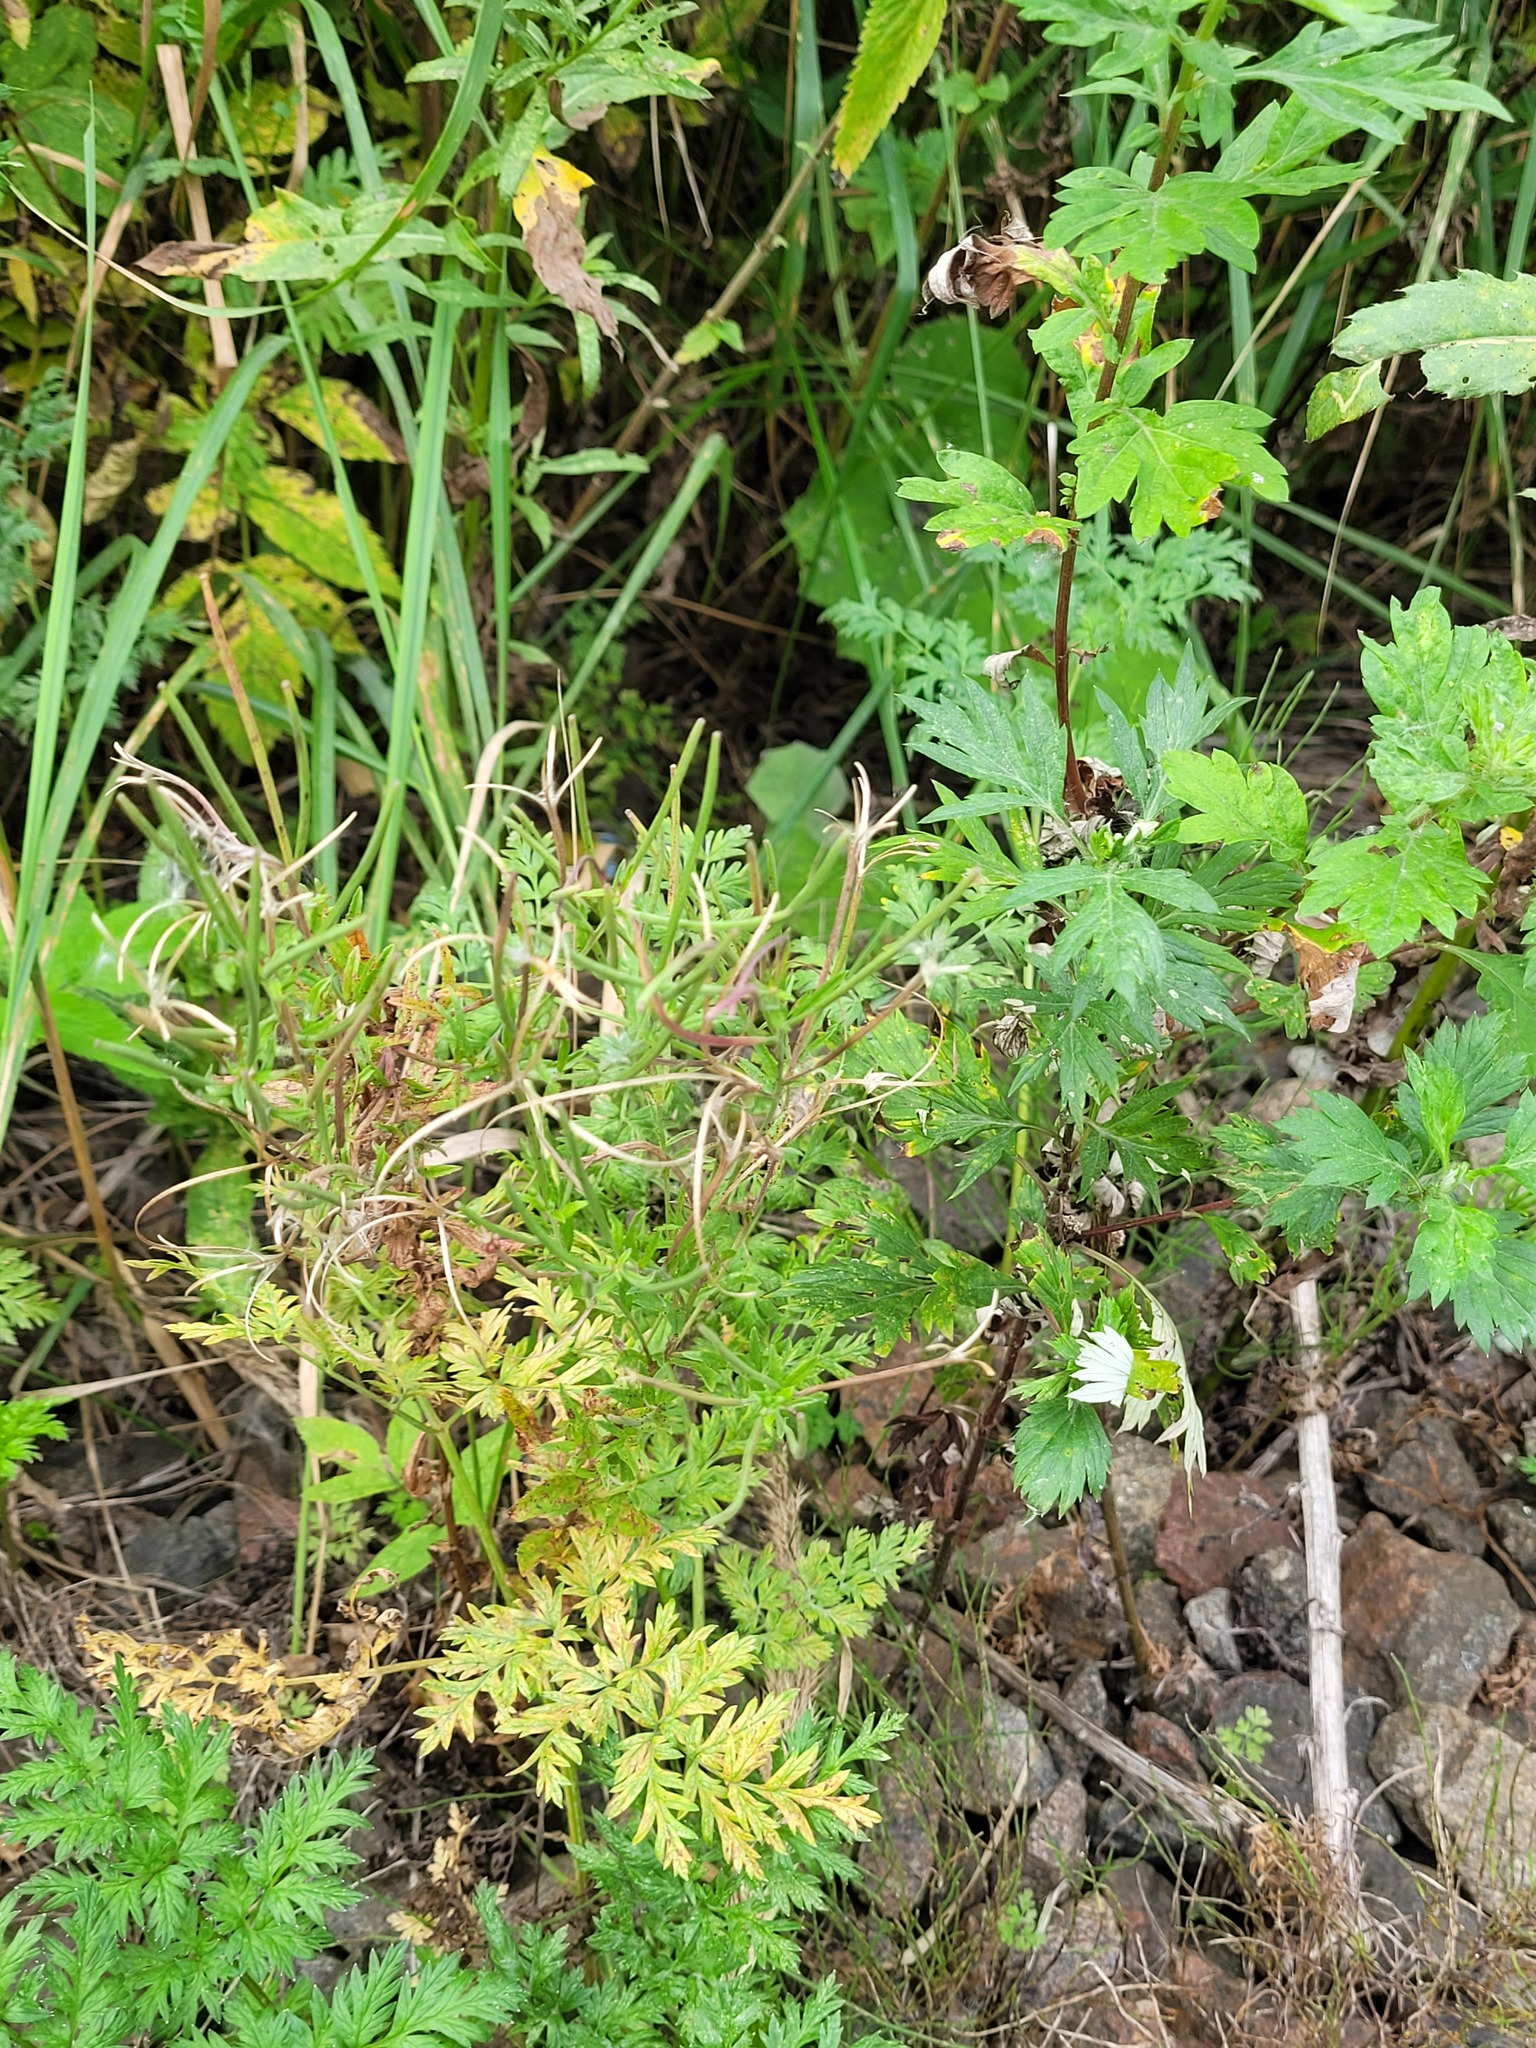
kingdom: Plantae
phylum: Tracheophyta
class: Magnoliopsida
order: Myrtales
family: Onagraceae
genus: Epilobium
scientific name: Epilobium tetragonum
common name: Square-stemmed willowherb
